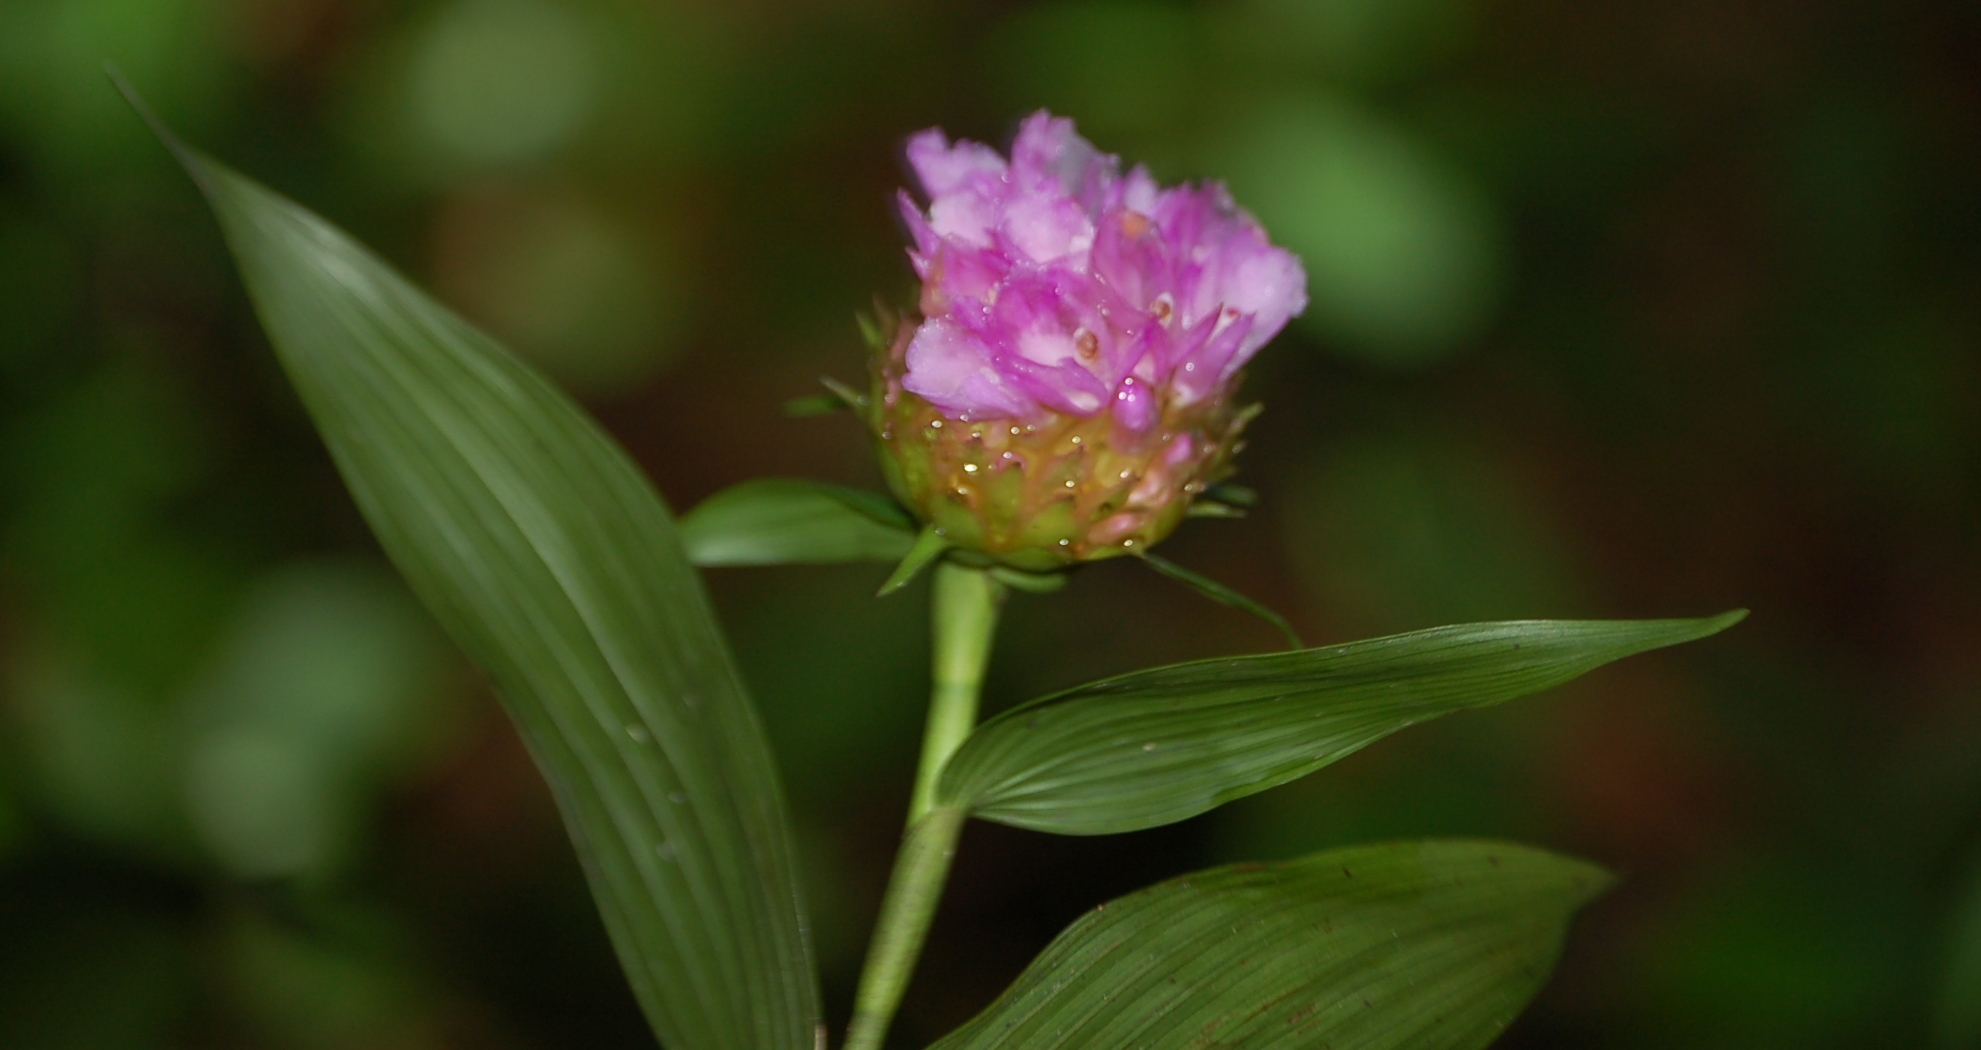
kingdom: Plantae
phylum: Tracheophyta
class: Liliopsida
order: Asparagales
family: Orchidaceae
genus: Elleanthus
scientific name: Elleanthus capitatus
